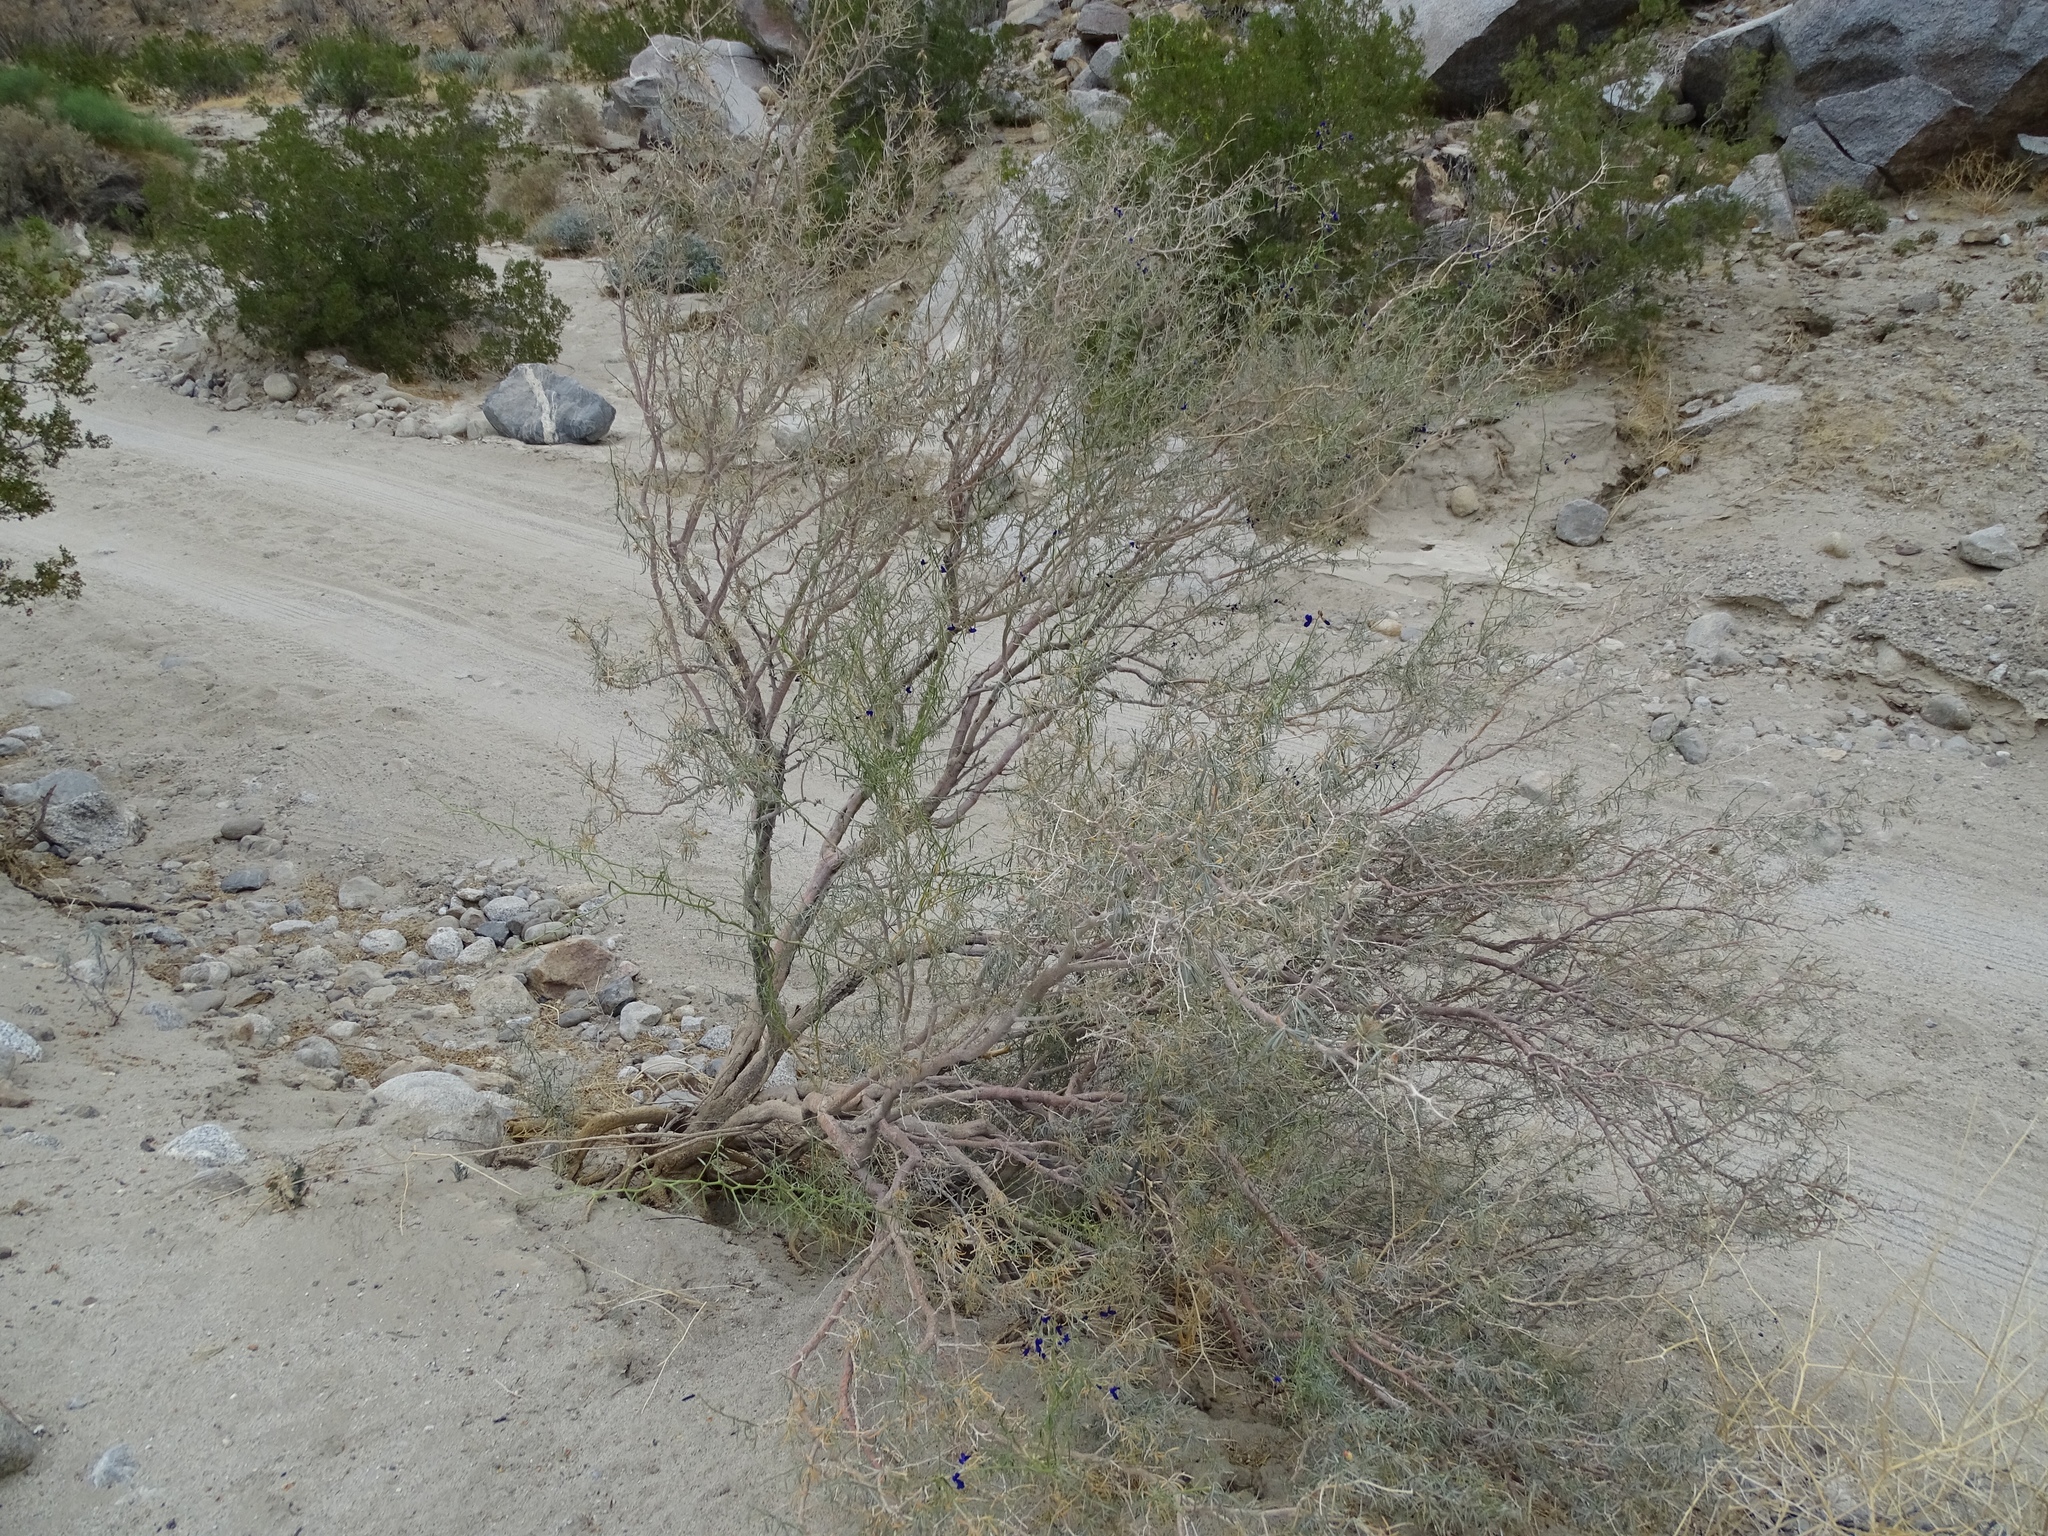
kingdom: Plantae
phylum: Tracheophyta
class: Magnoliopsida
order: Fabales
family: Fabaceae
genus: Psorothamnus
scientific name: Psorothamnus schottii
